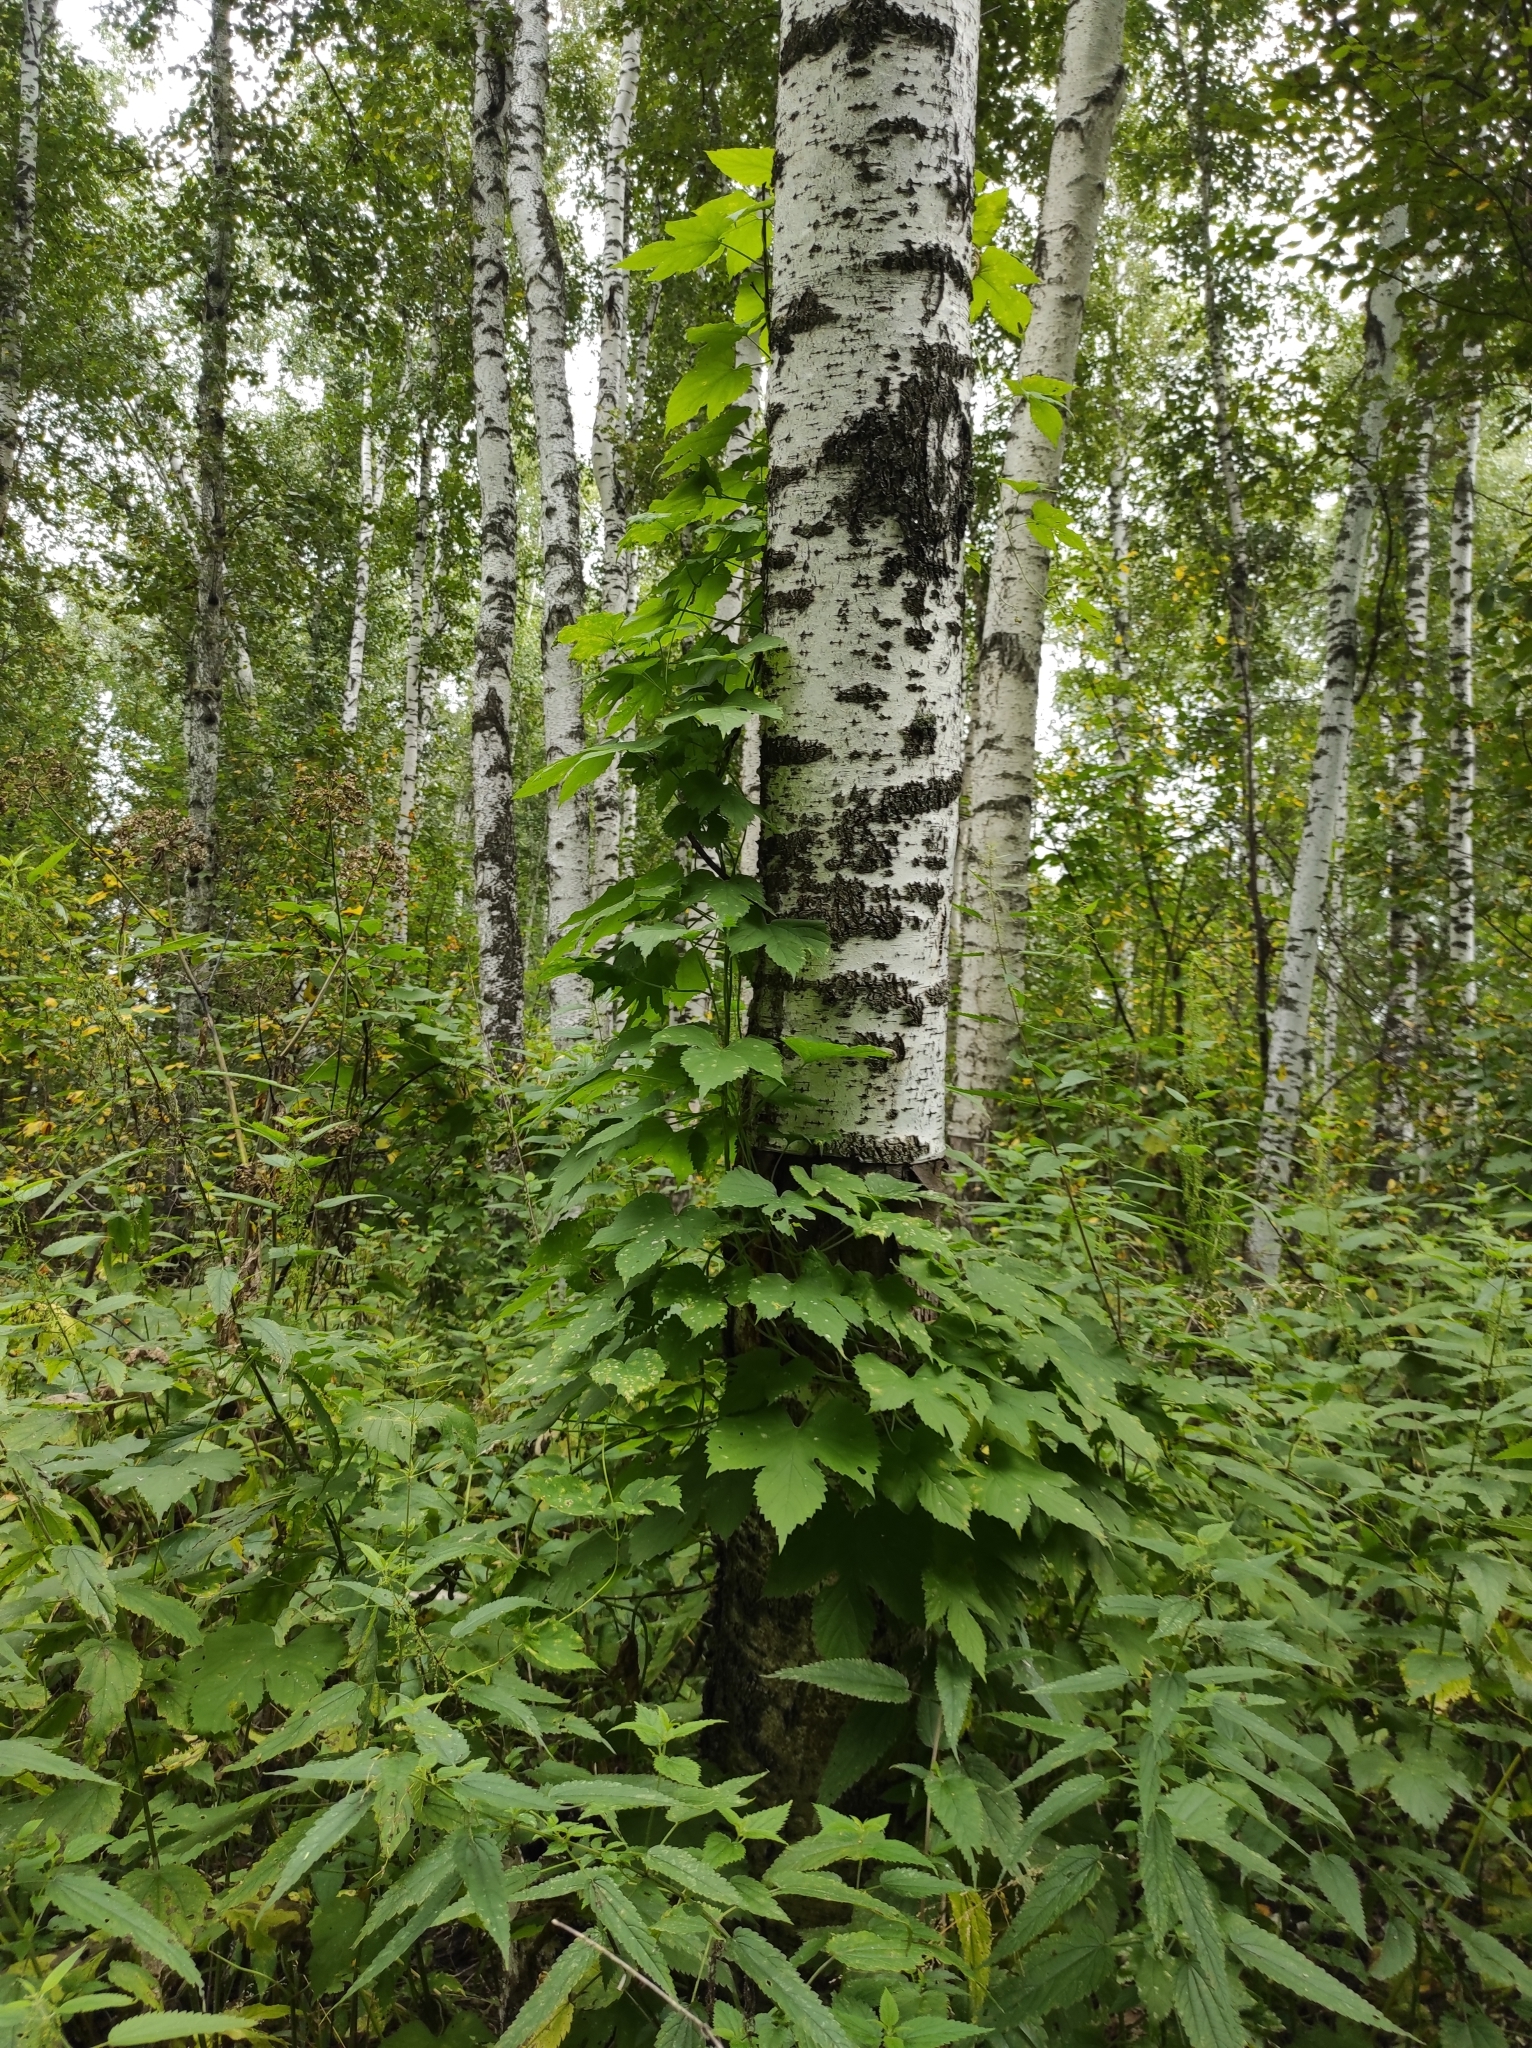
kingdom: Plantae
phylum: Tracheophyta
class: Magnoliopsida
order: Rosales
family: Cannabaceae
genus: Humulus
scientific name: Humulus lupulus
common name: Hop
